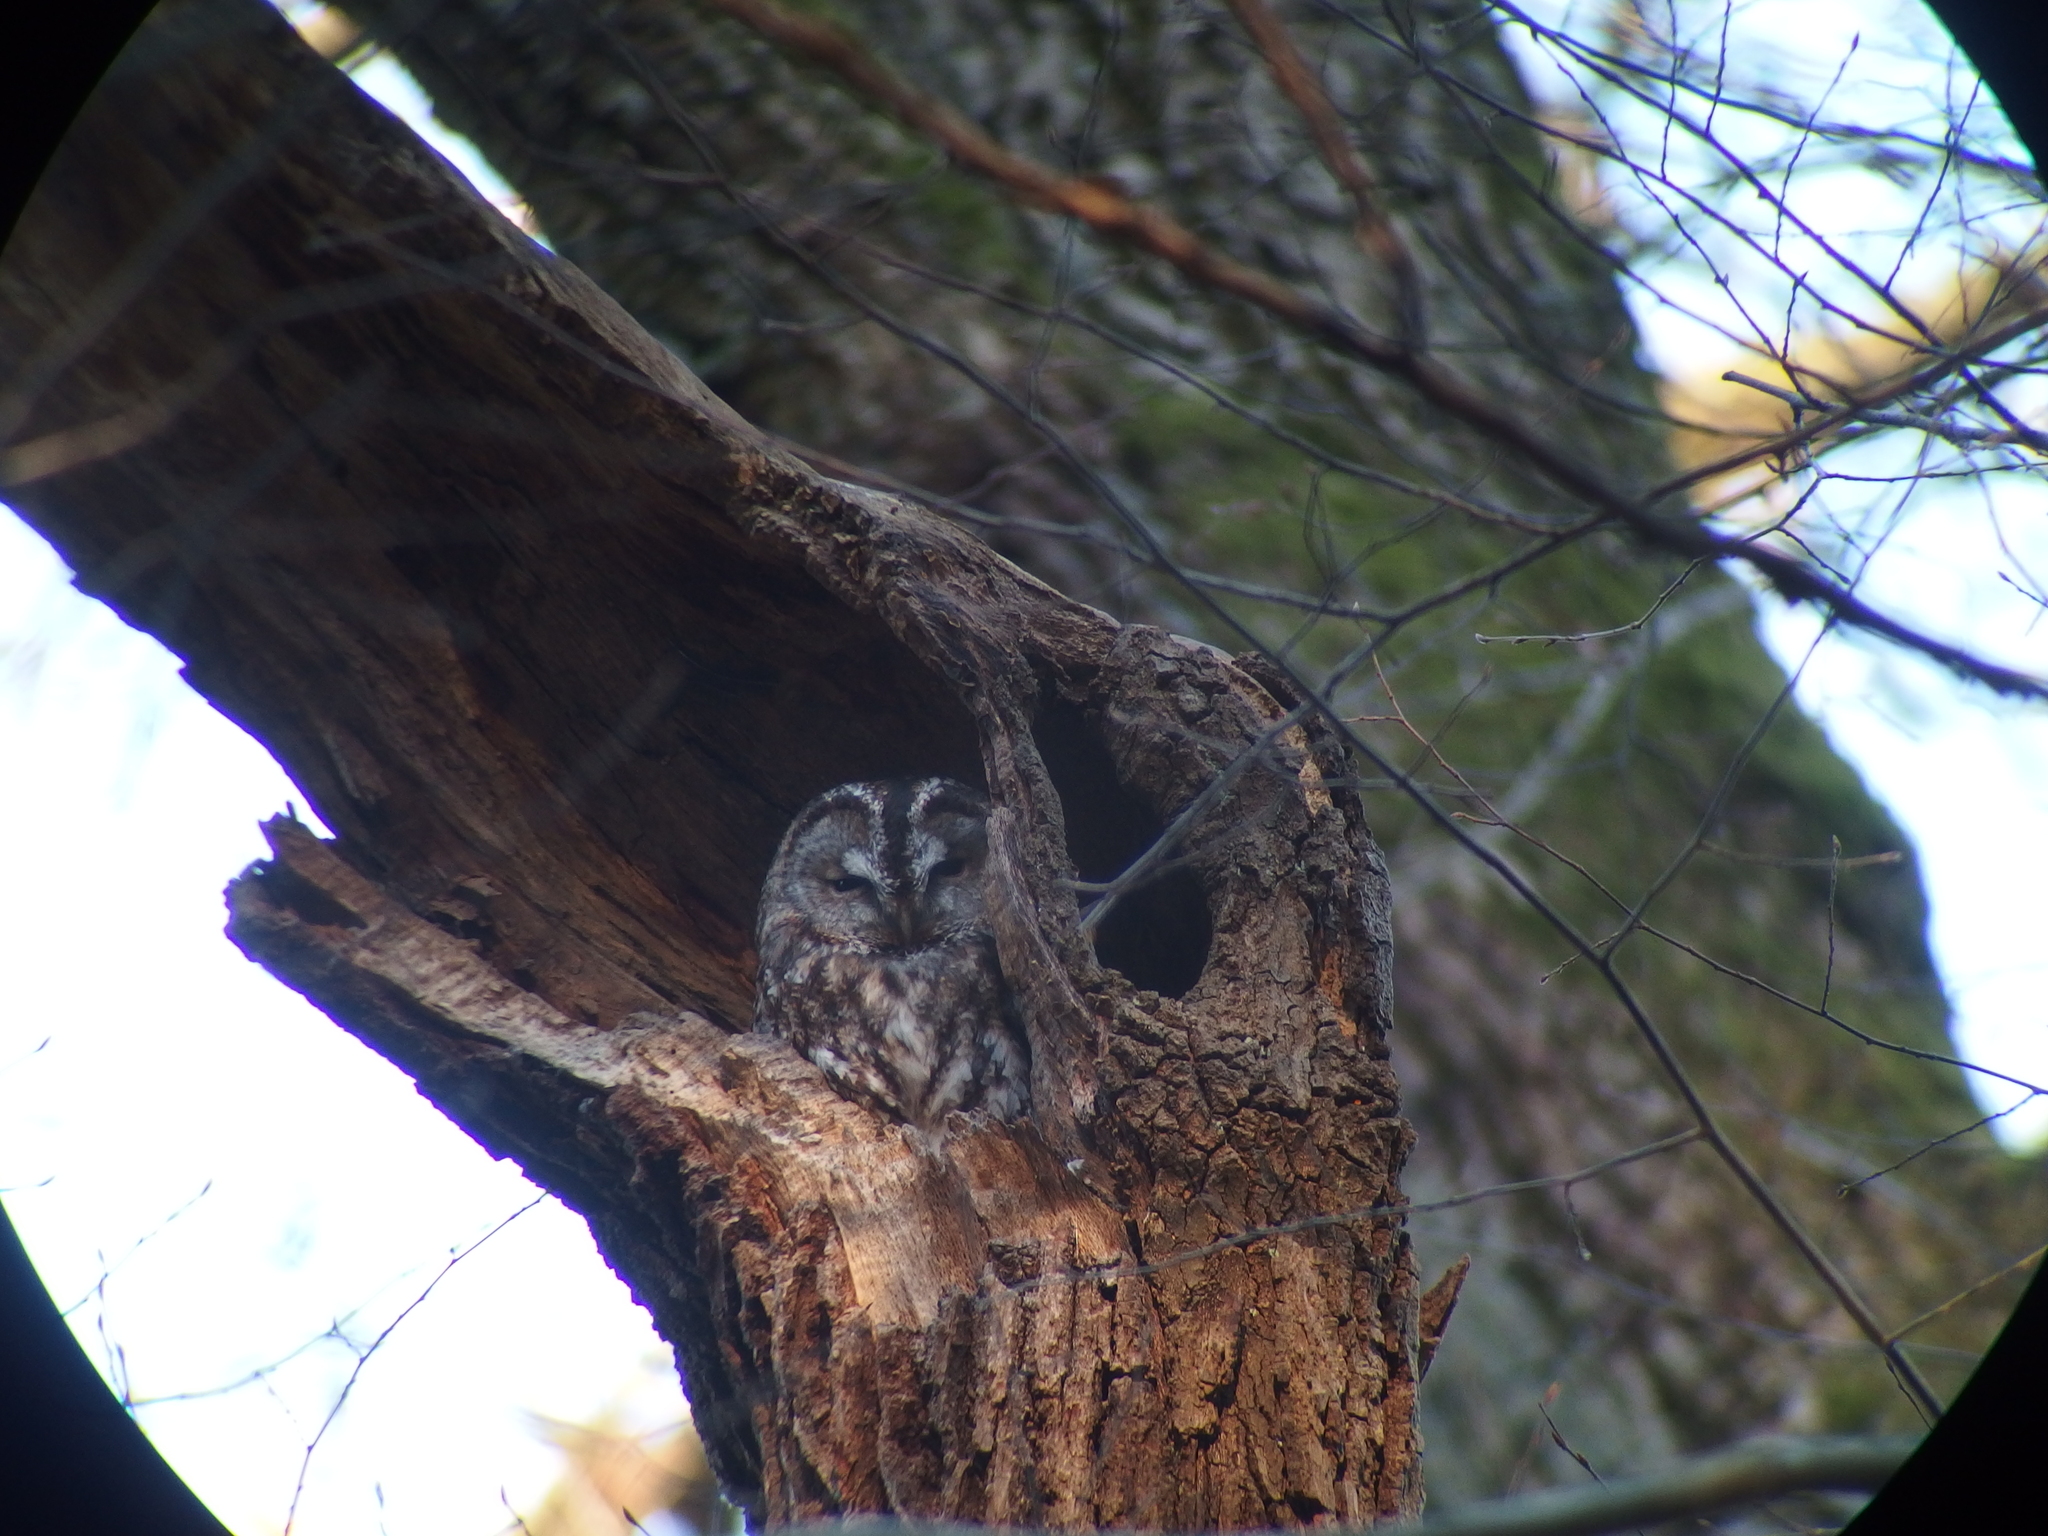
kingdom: Animalia
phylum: Chordata
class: Aves
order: Strigiformes
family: Strigidae
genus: Strix
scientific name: Strix aluco
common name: Tawny owl
